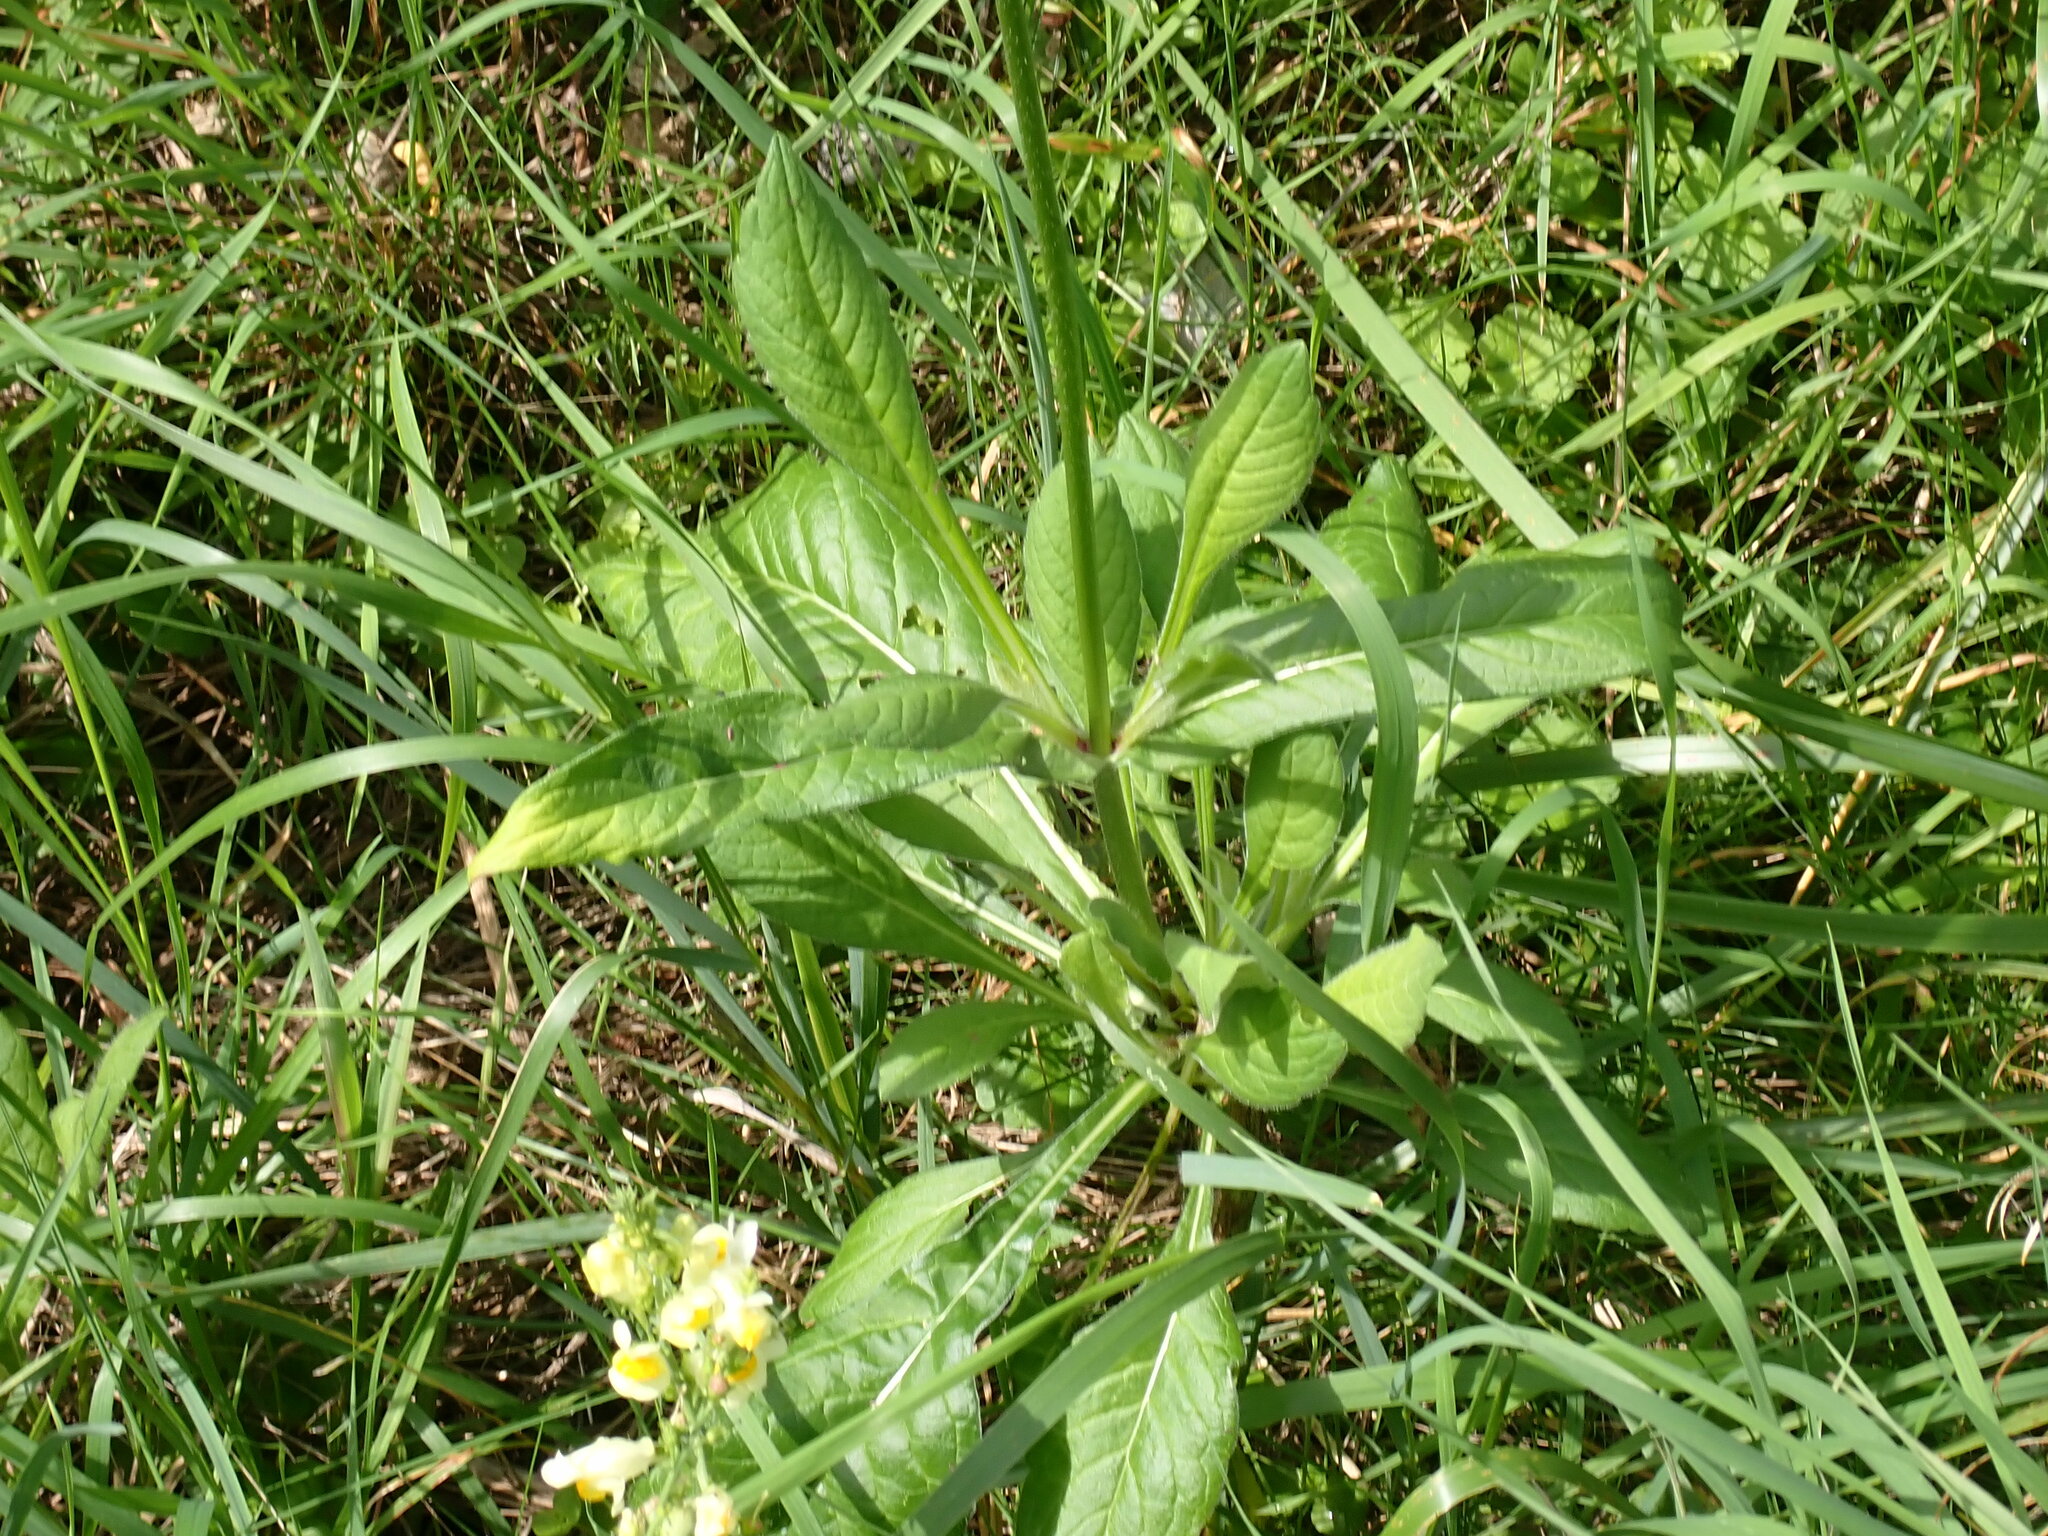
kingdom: Plantae
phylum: Tracheophyta
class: Magnoliopsida
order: Dipsacales
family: Caprifoliaceae
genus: Knautia
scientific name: Knautia macedonica
